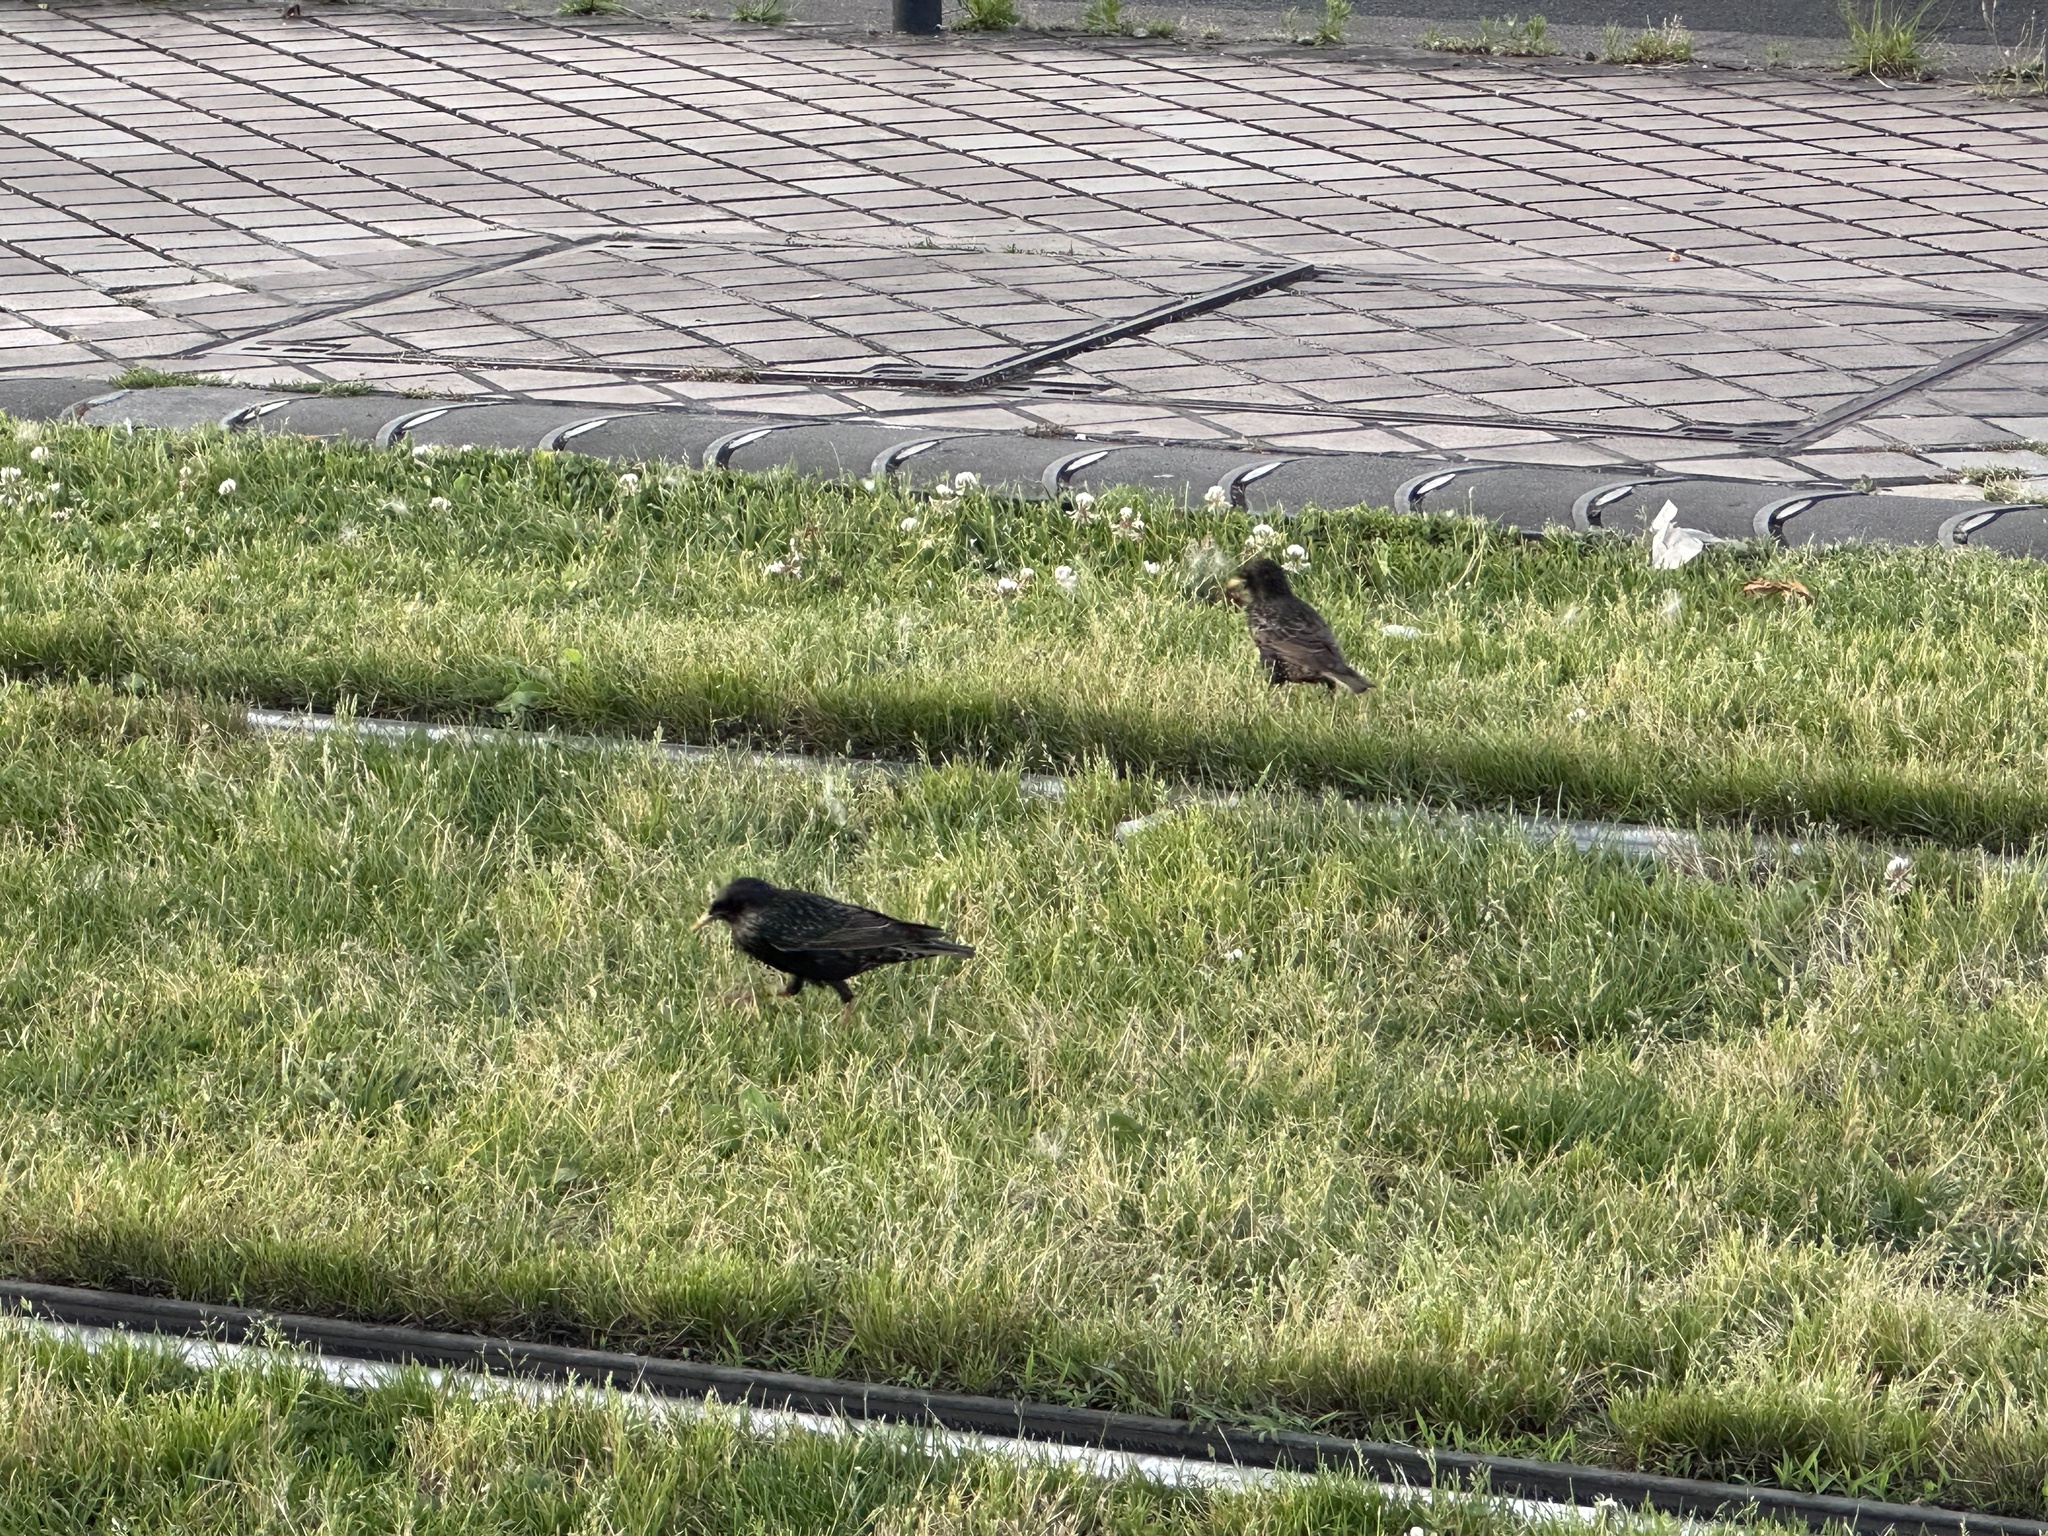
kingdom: Animalia
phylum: Chordata
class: Aves
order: Passeriformes
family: Sturnidae
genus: Sturnus
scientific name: Sturnus vulgaris
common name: Common starling
